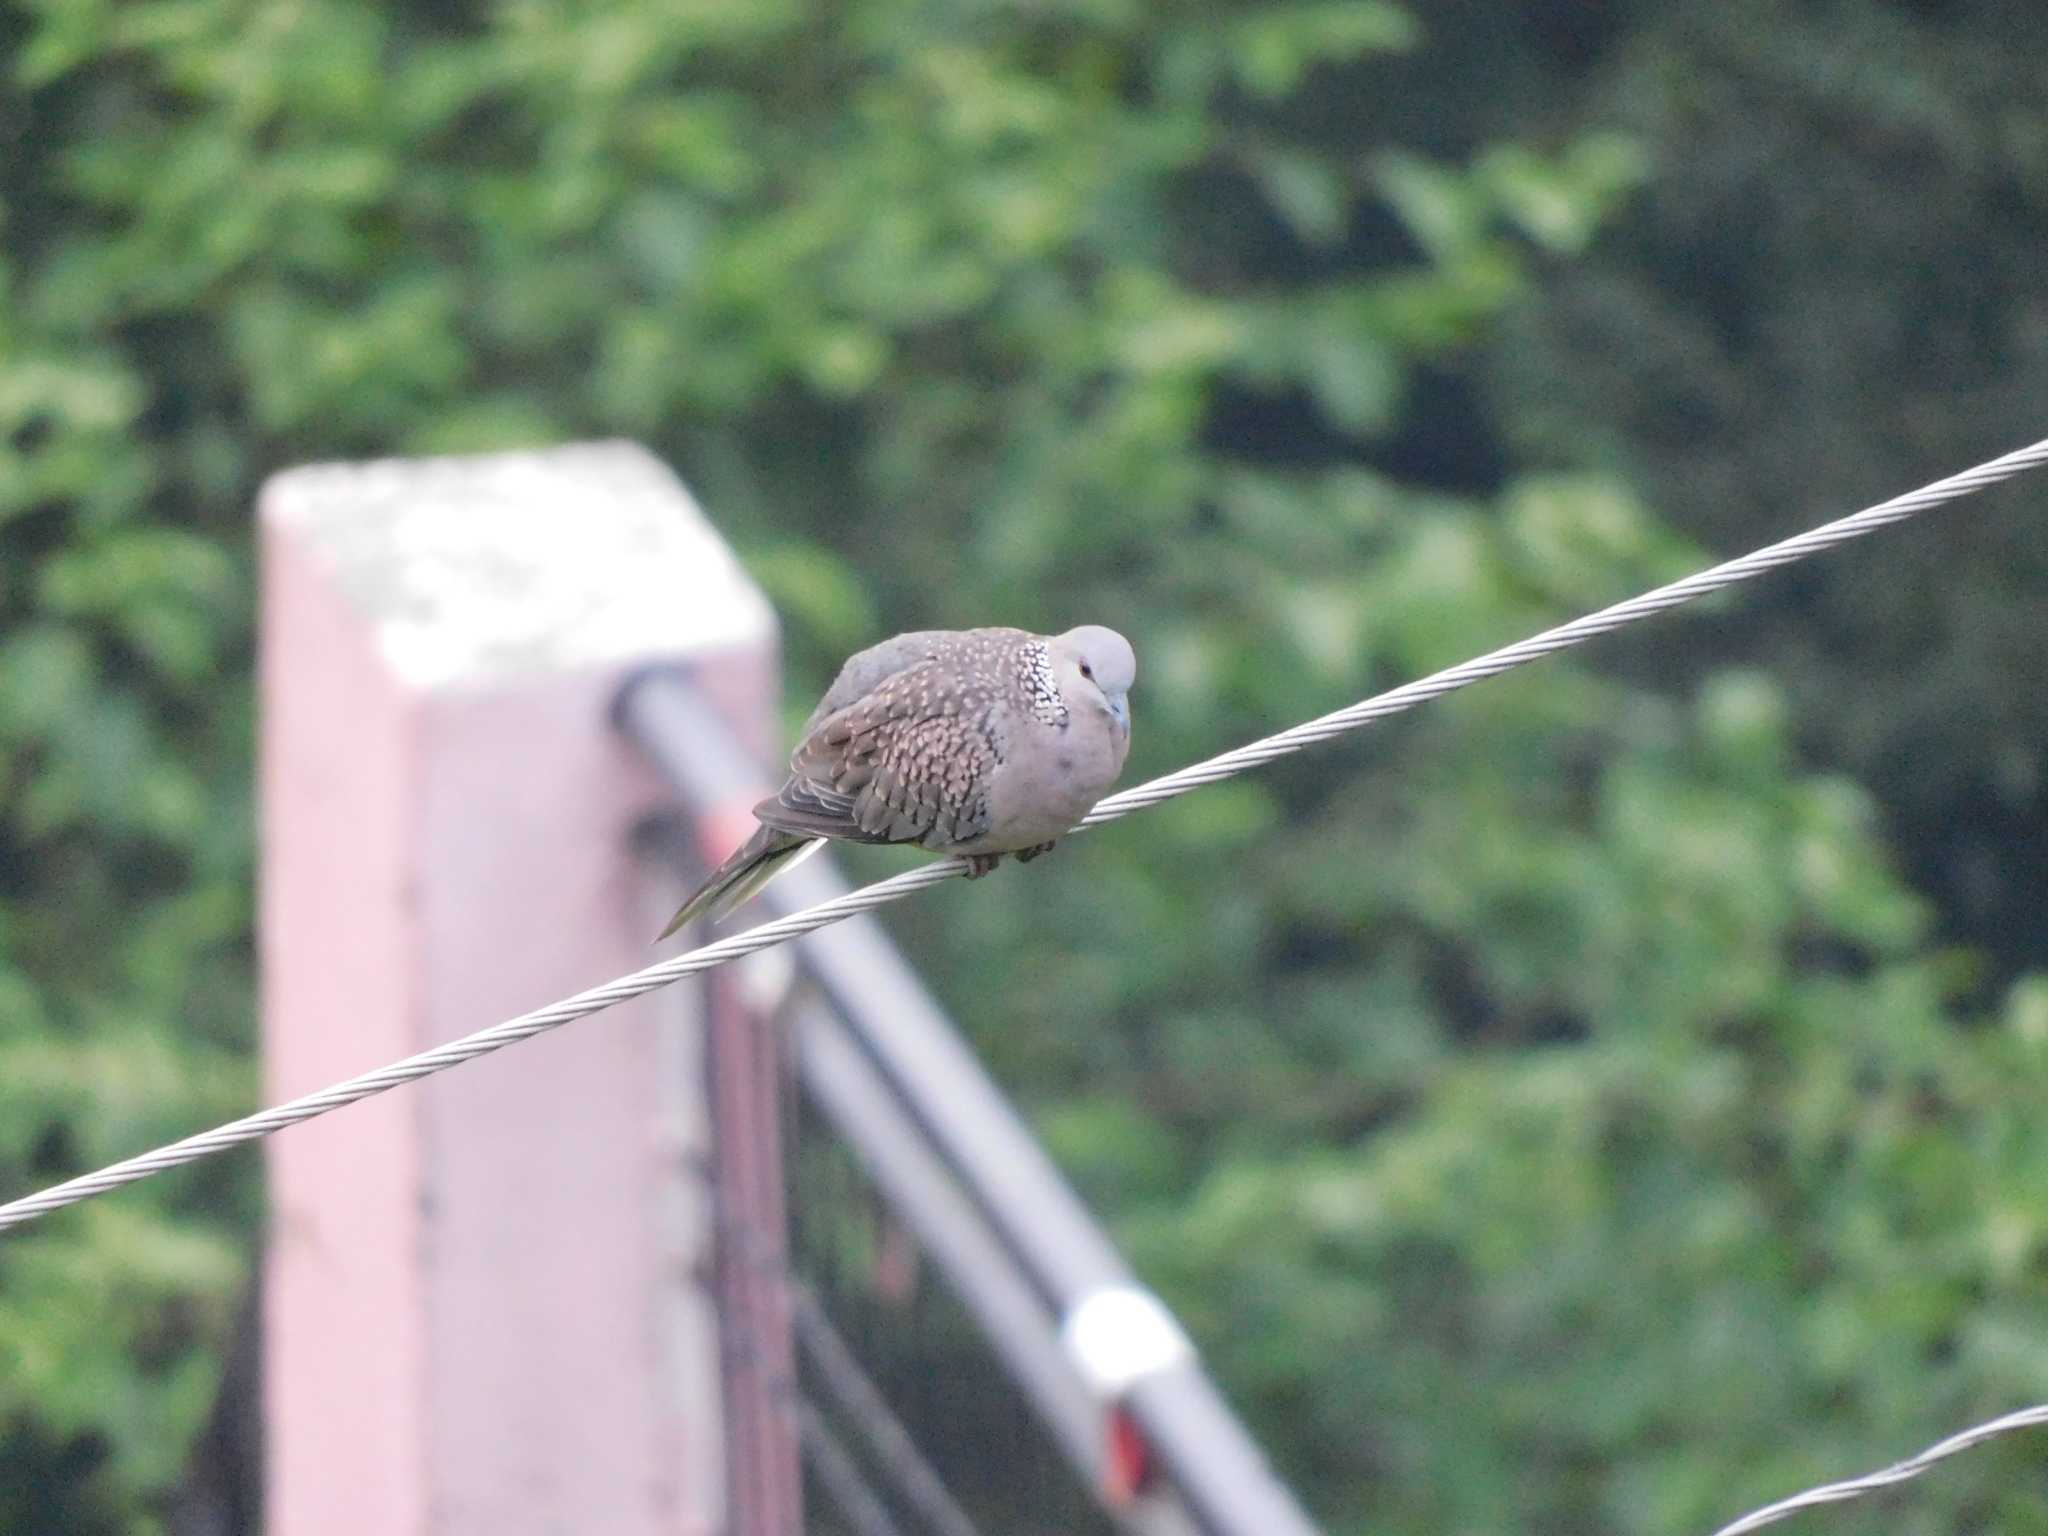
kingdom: Animalia
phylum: Chordata
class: Aves
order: Columbiformes
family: Columbidae
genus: Spilopelia
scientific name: Spilopelia chinensis
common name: Spotted dove
